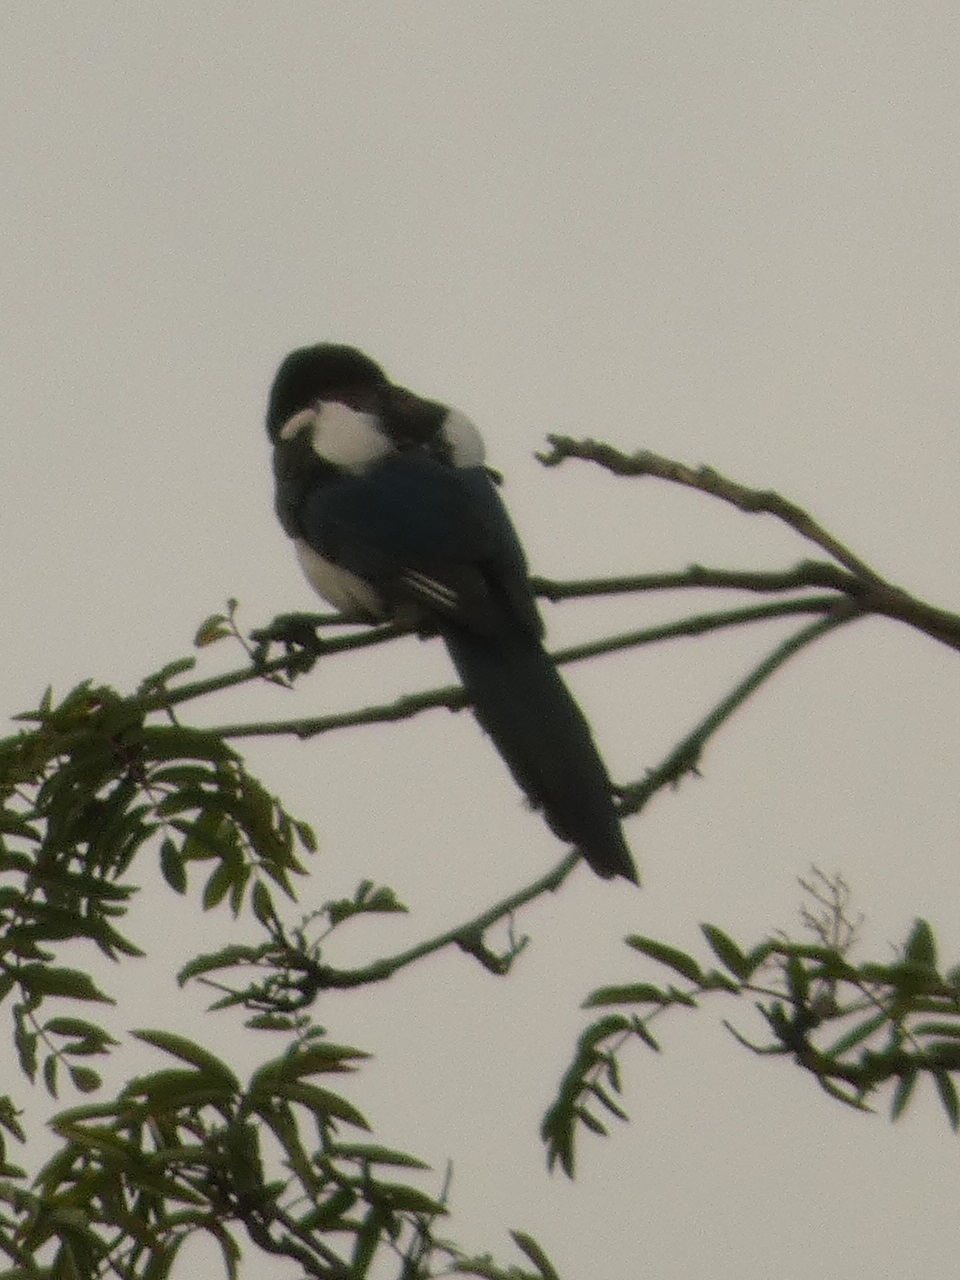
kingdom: Animalia
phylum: Chordata
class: Aves
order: Passeriformes
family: Corvidae
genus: Pica
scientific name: Pica pica
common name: Eurasian magpie
